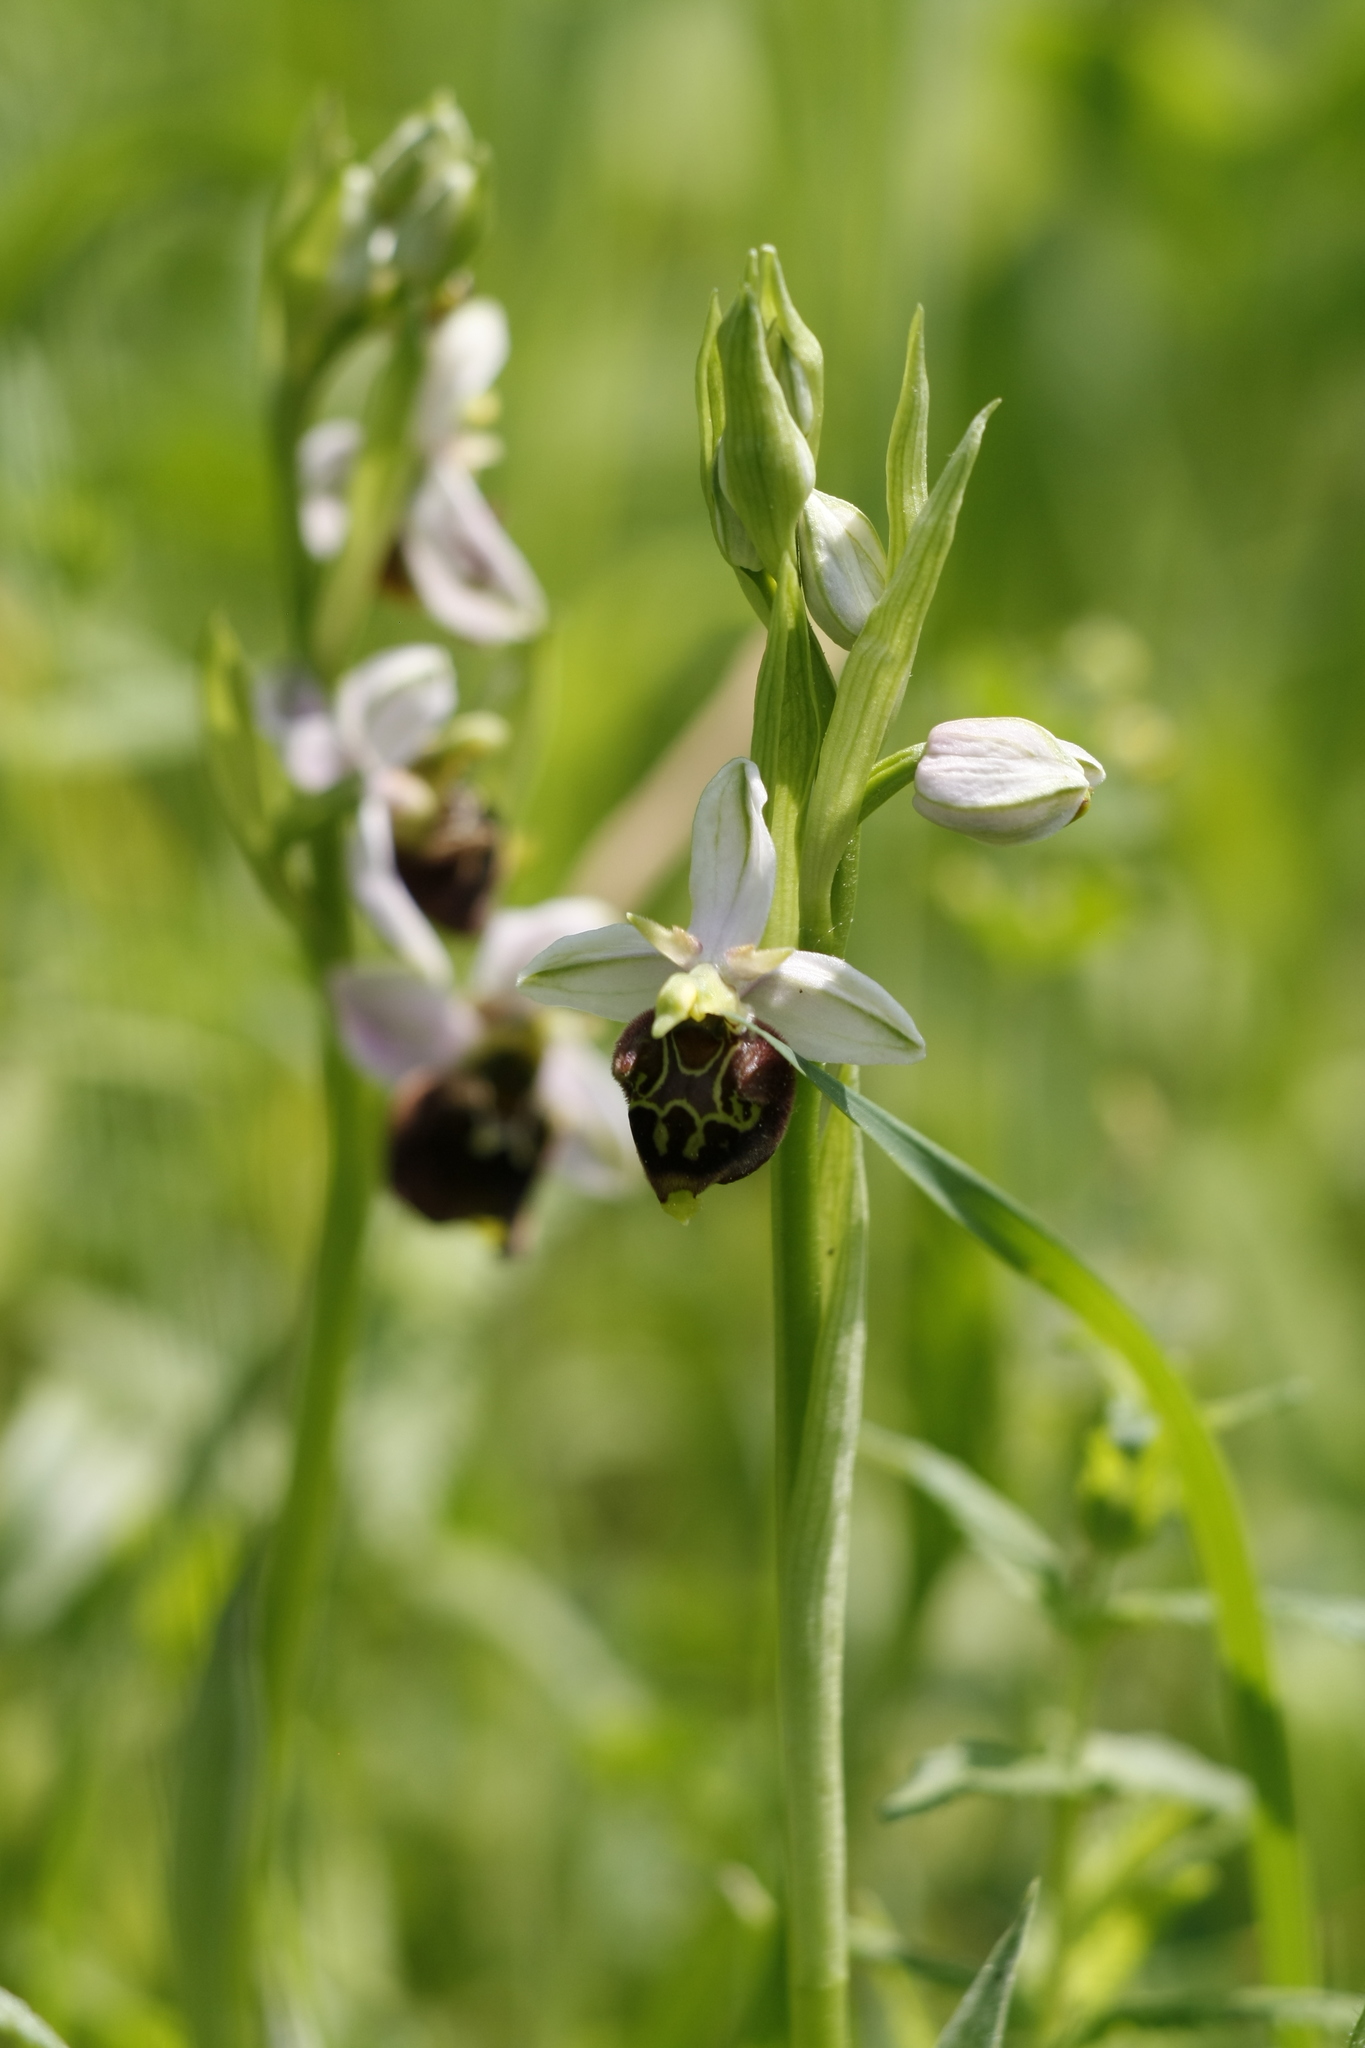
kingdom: Plantae
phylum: Tracheophyta
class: Liliopsida
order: Asparagales
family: Orchidaceae
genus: Ophrys
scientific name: Ophrys holosericea
